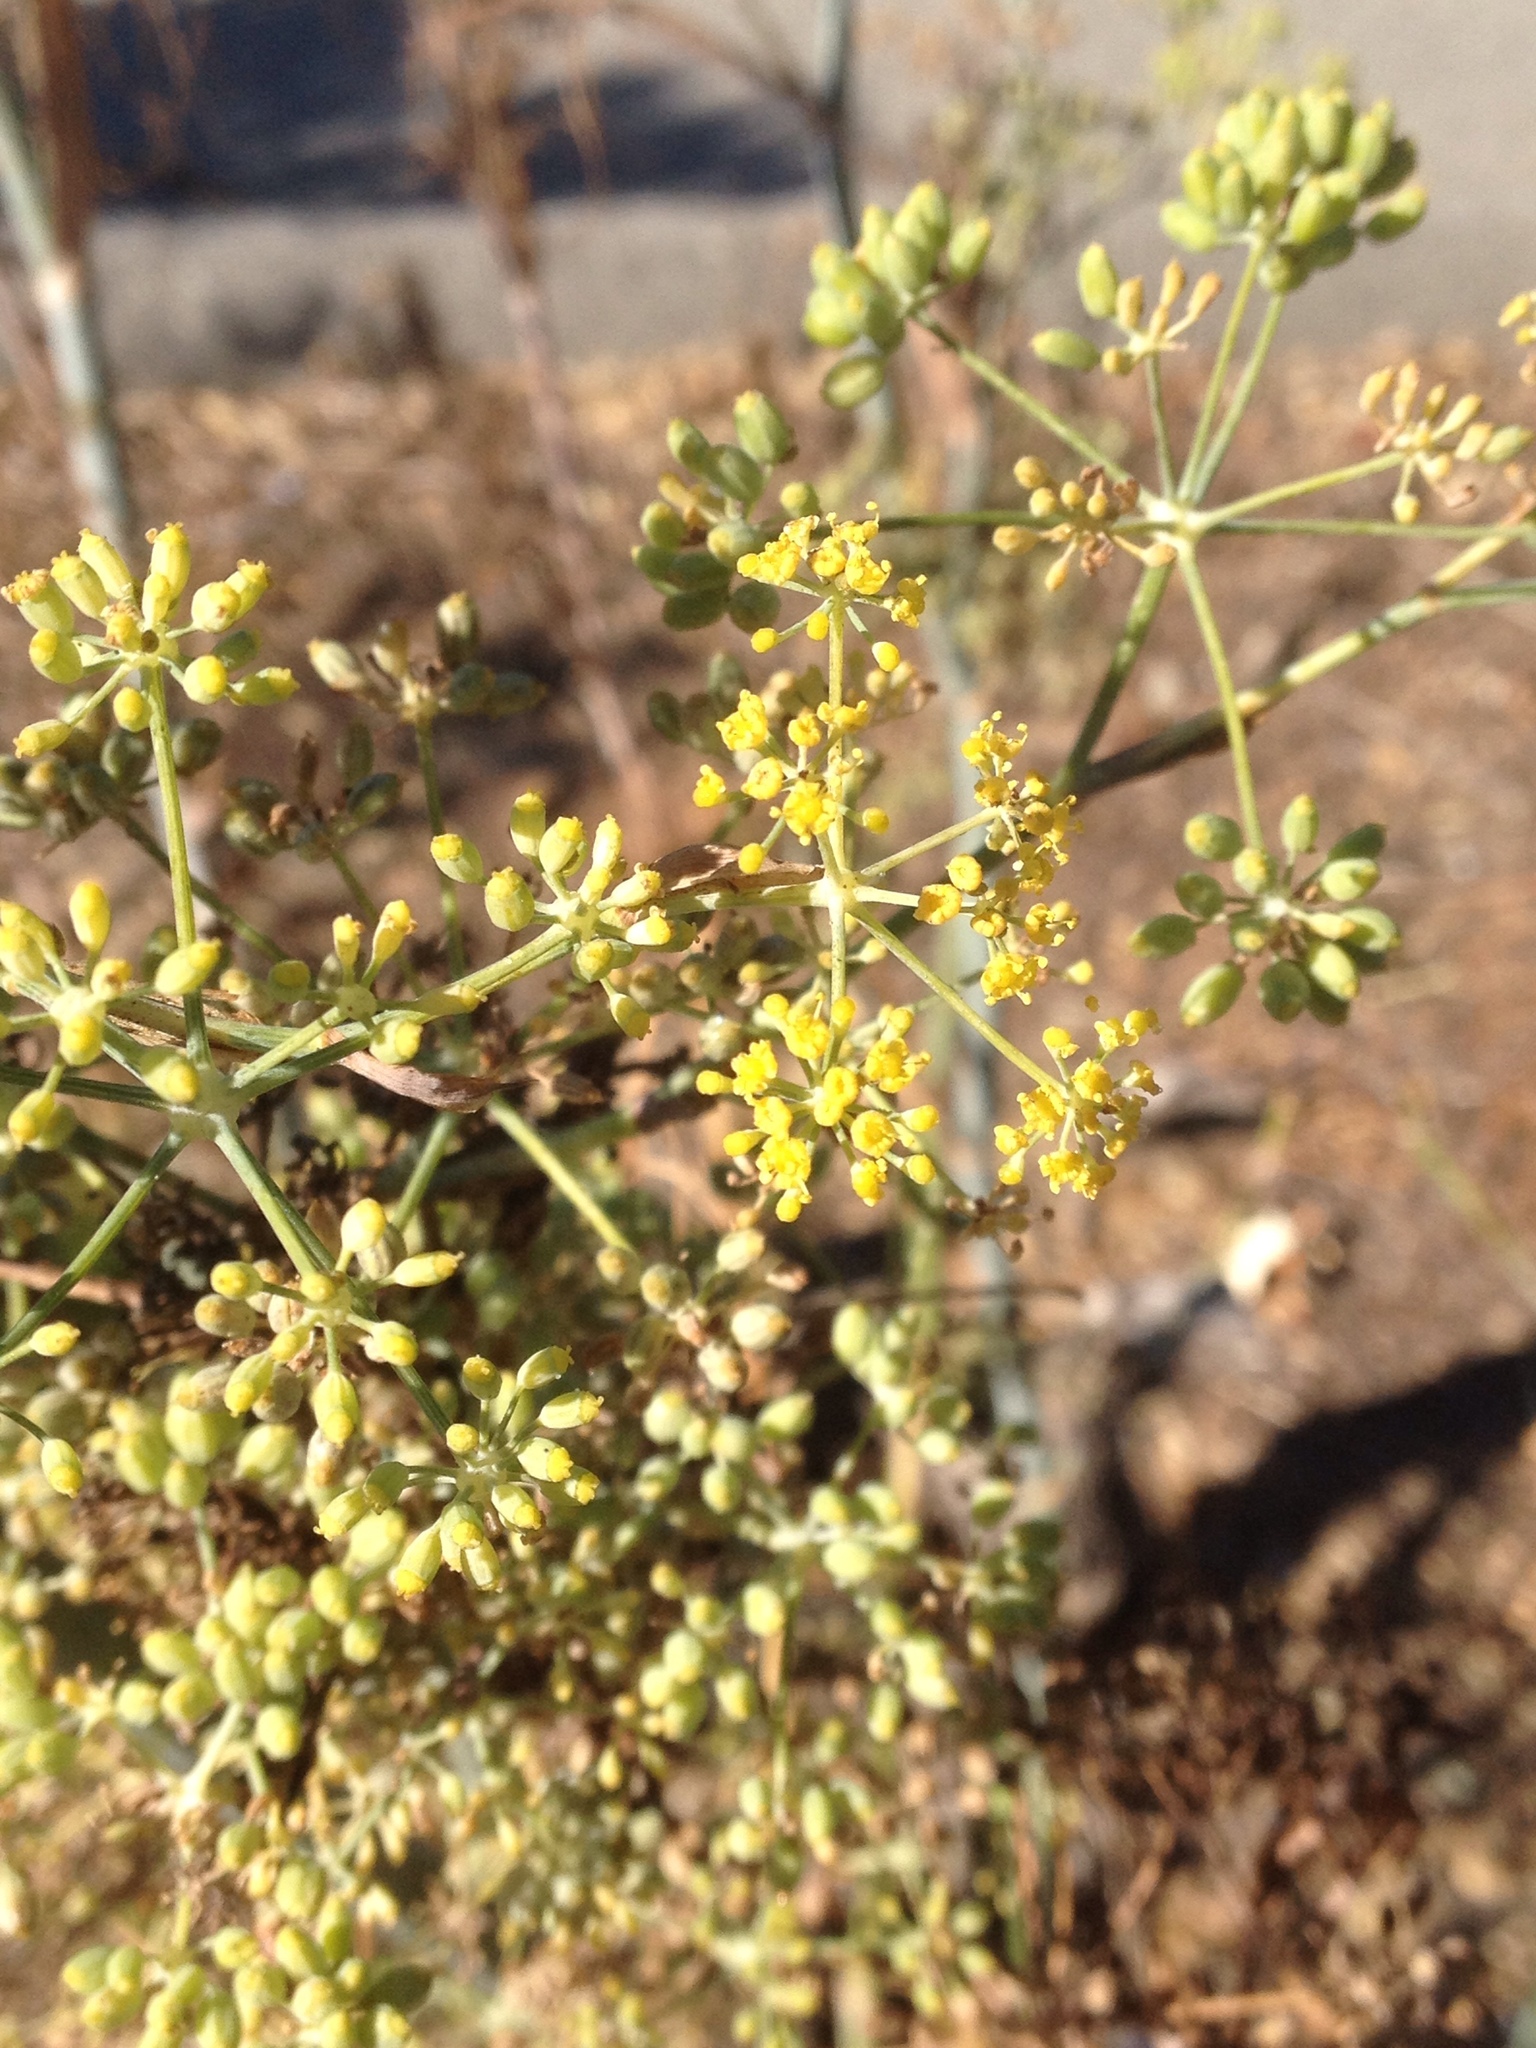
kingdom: Plantae
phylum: Tracheophyta
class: Magnoliopsida
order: Apiales
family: Apiaceae
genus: Foeniculum
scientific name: Foeniculum vulgare
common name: Fennel
